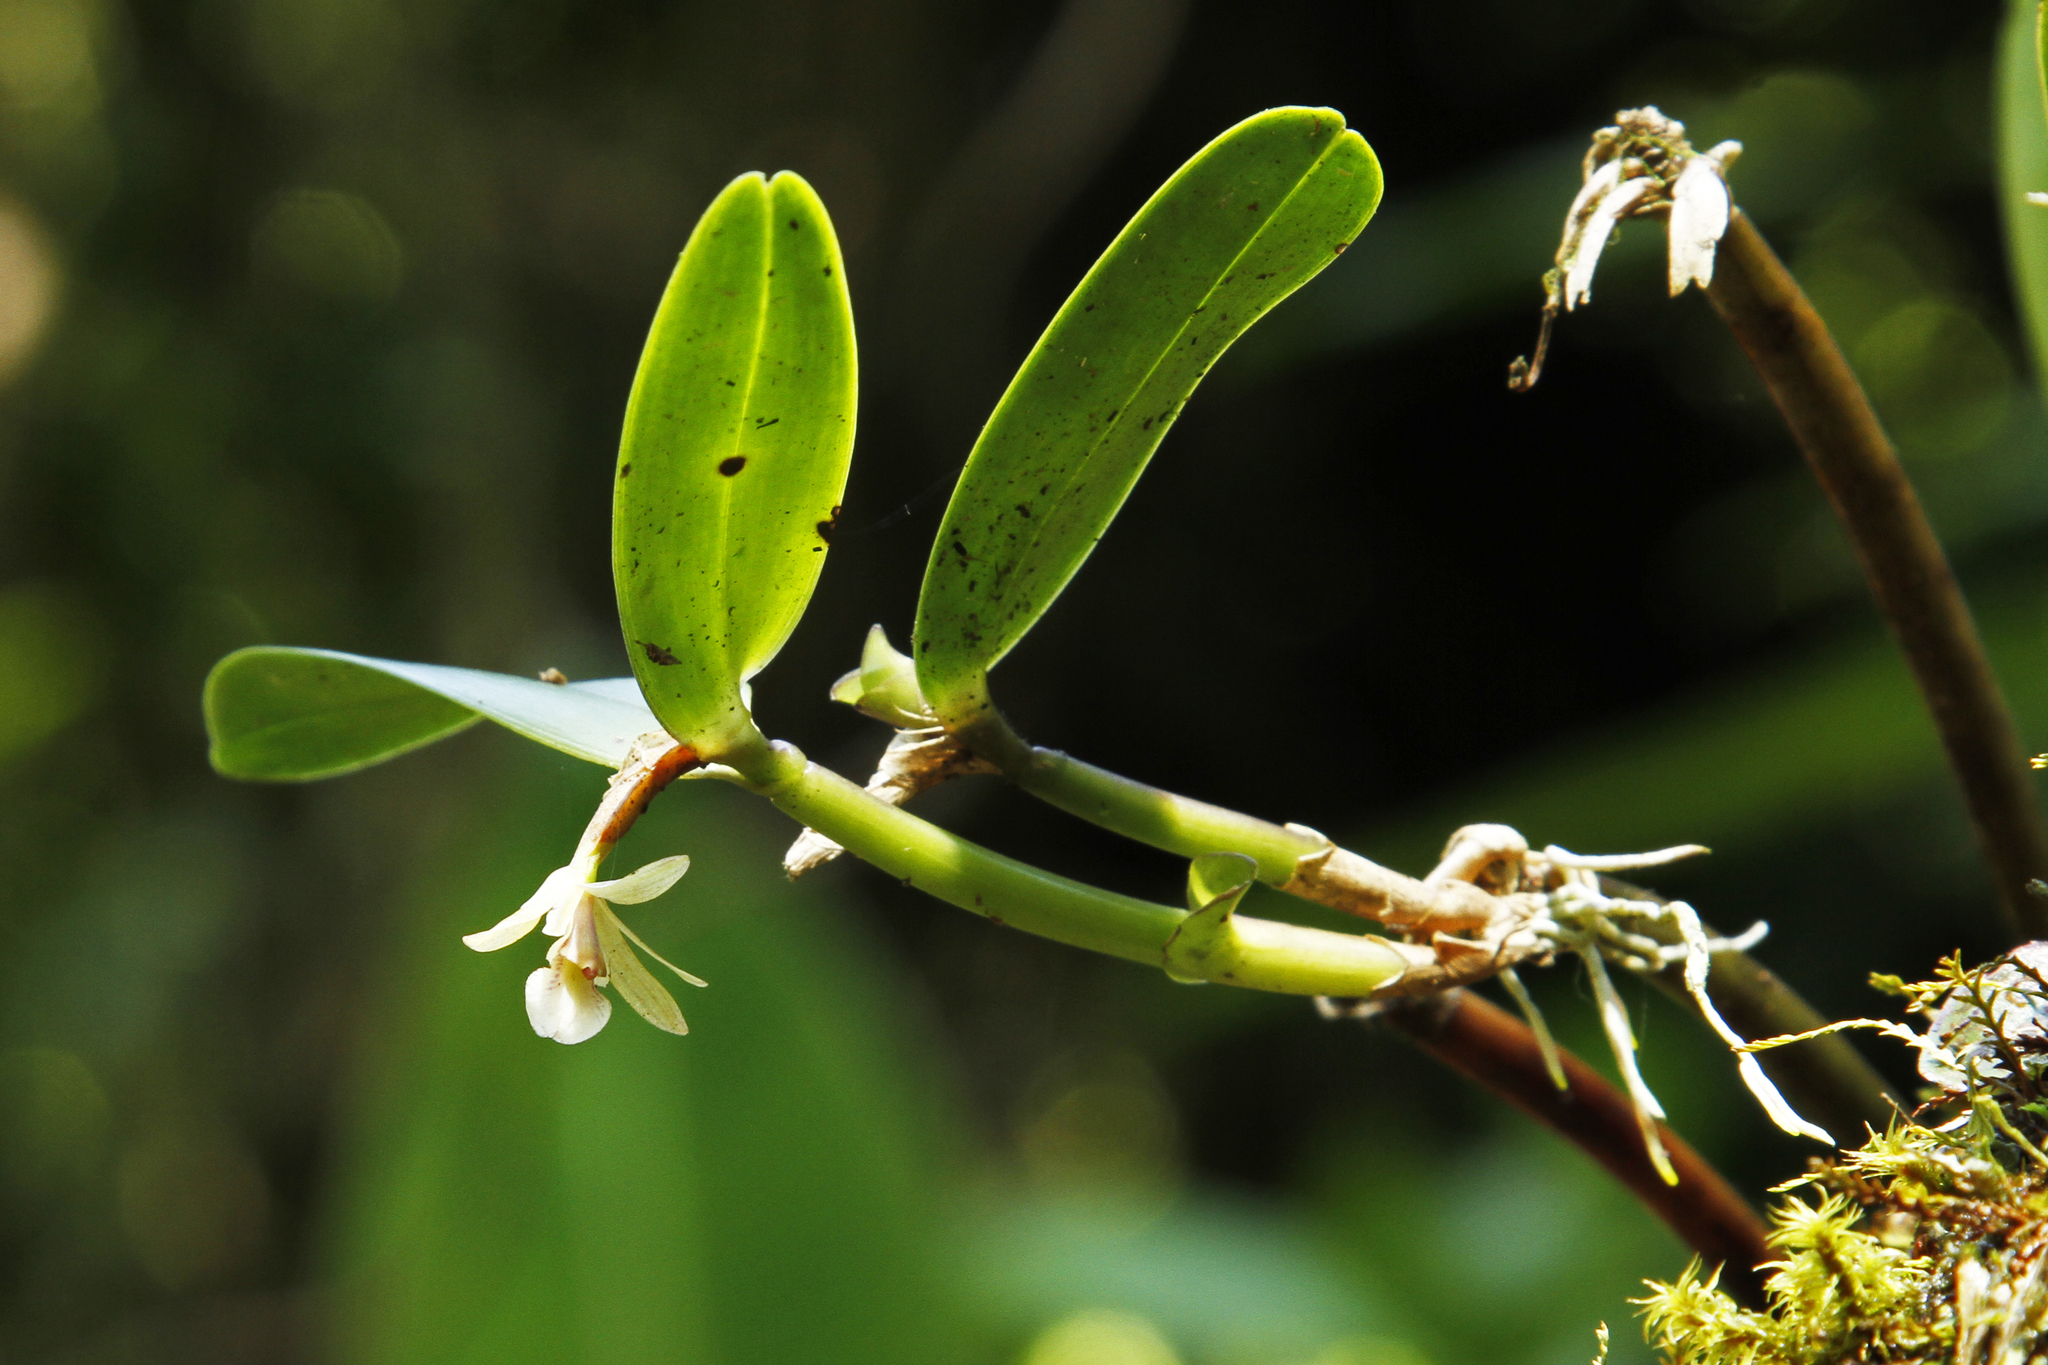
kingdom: Plantae
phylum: Tracheophyta
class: Liliopsida
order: Asparagales
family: Orchidaceae
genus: Scaphyglottis
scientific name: Scaphyglottis bilineata
